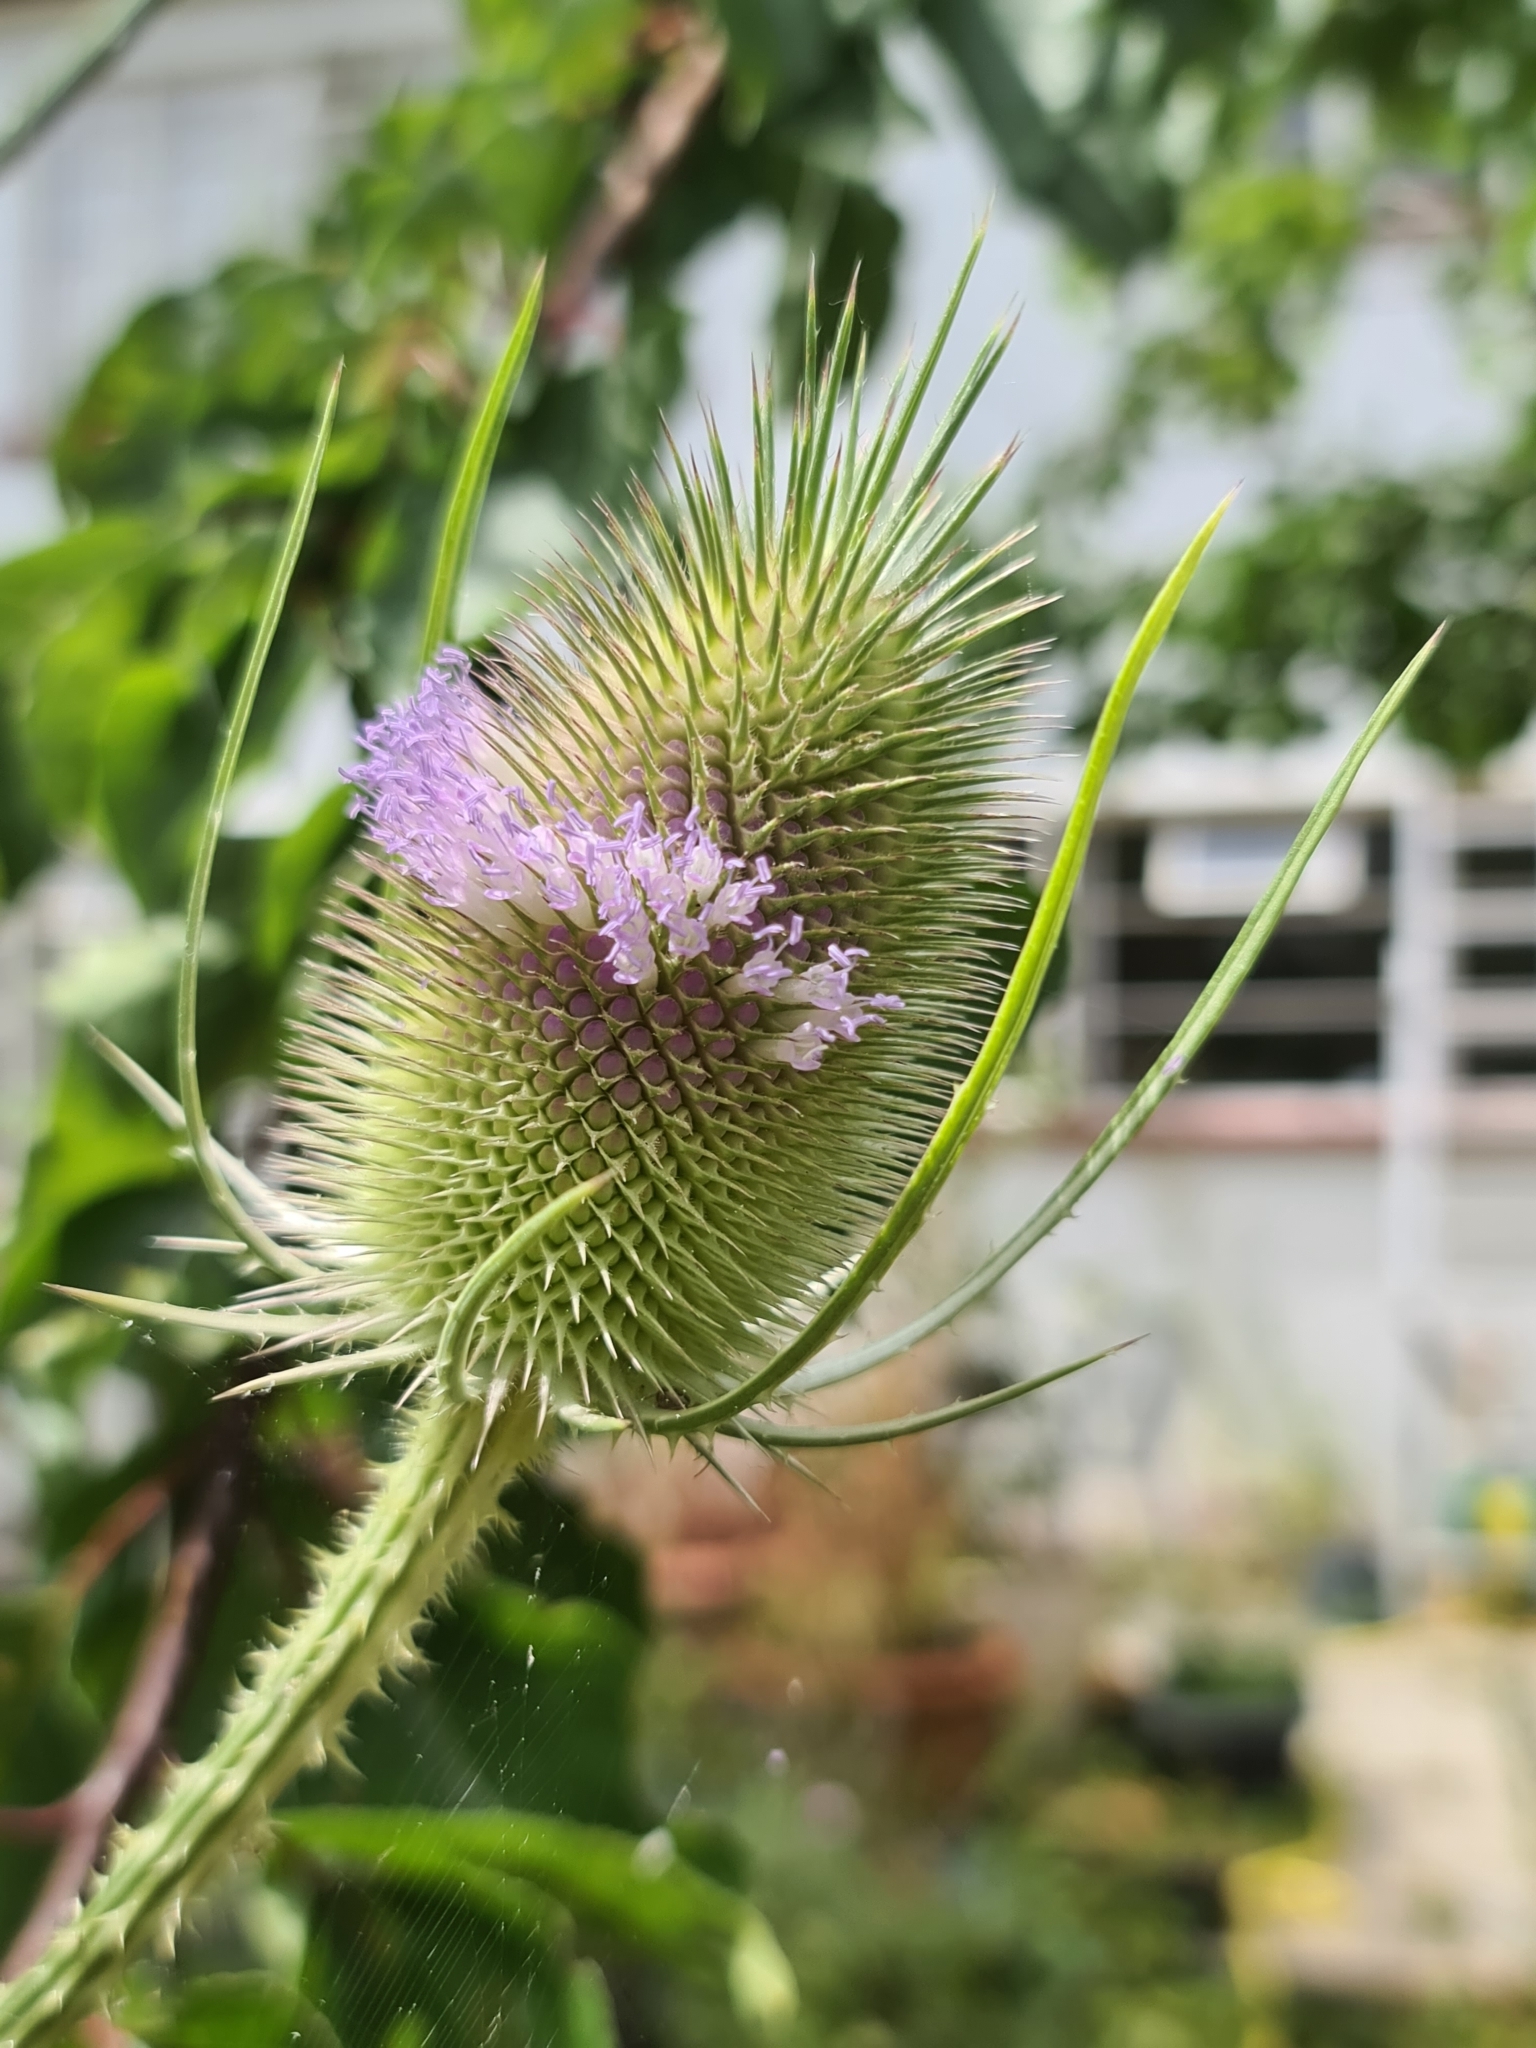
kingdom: Plantae
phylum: Tracheophyta
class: Magnoliopsida
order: Dipsacales
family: Caprifoliaceae
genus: Dipsacus
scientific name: Dipsacus fullonum
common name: Teasel
